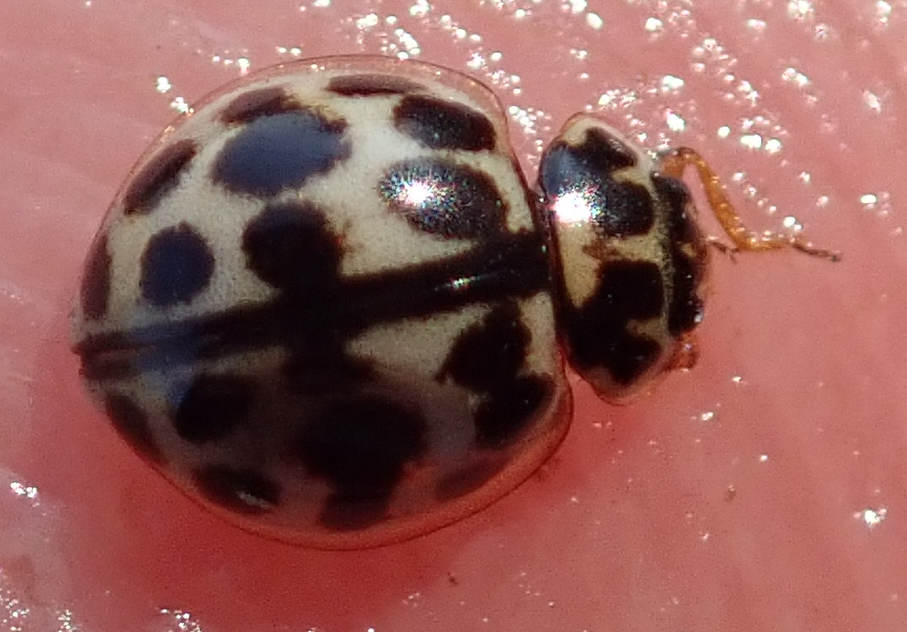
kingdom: Animalia
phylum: Arthropoda
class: Insecta
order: Coleoptera
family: Coccinellidae
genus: Bulaea
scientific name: Bulaea
